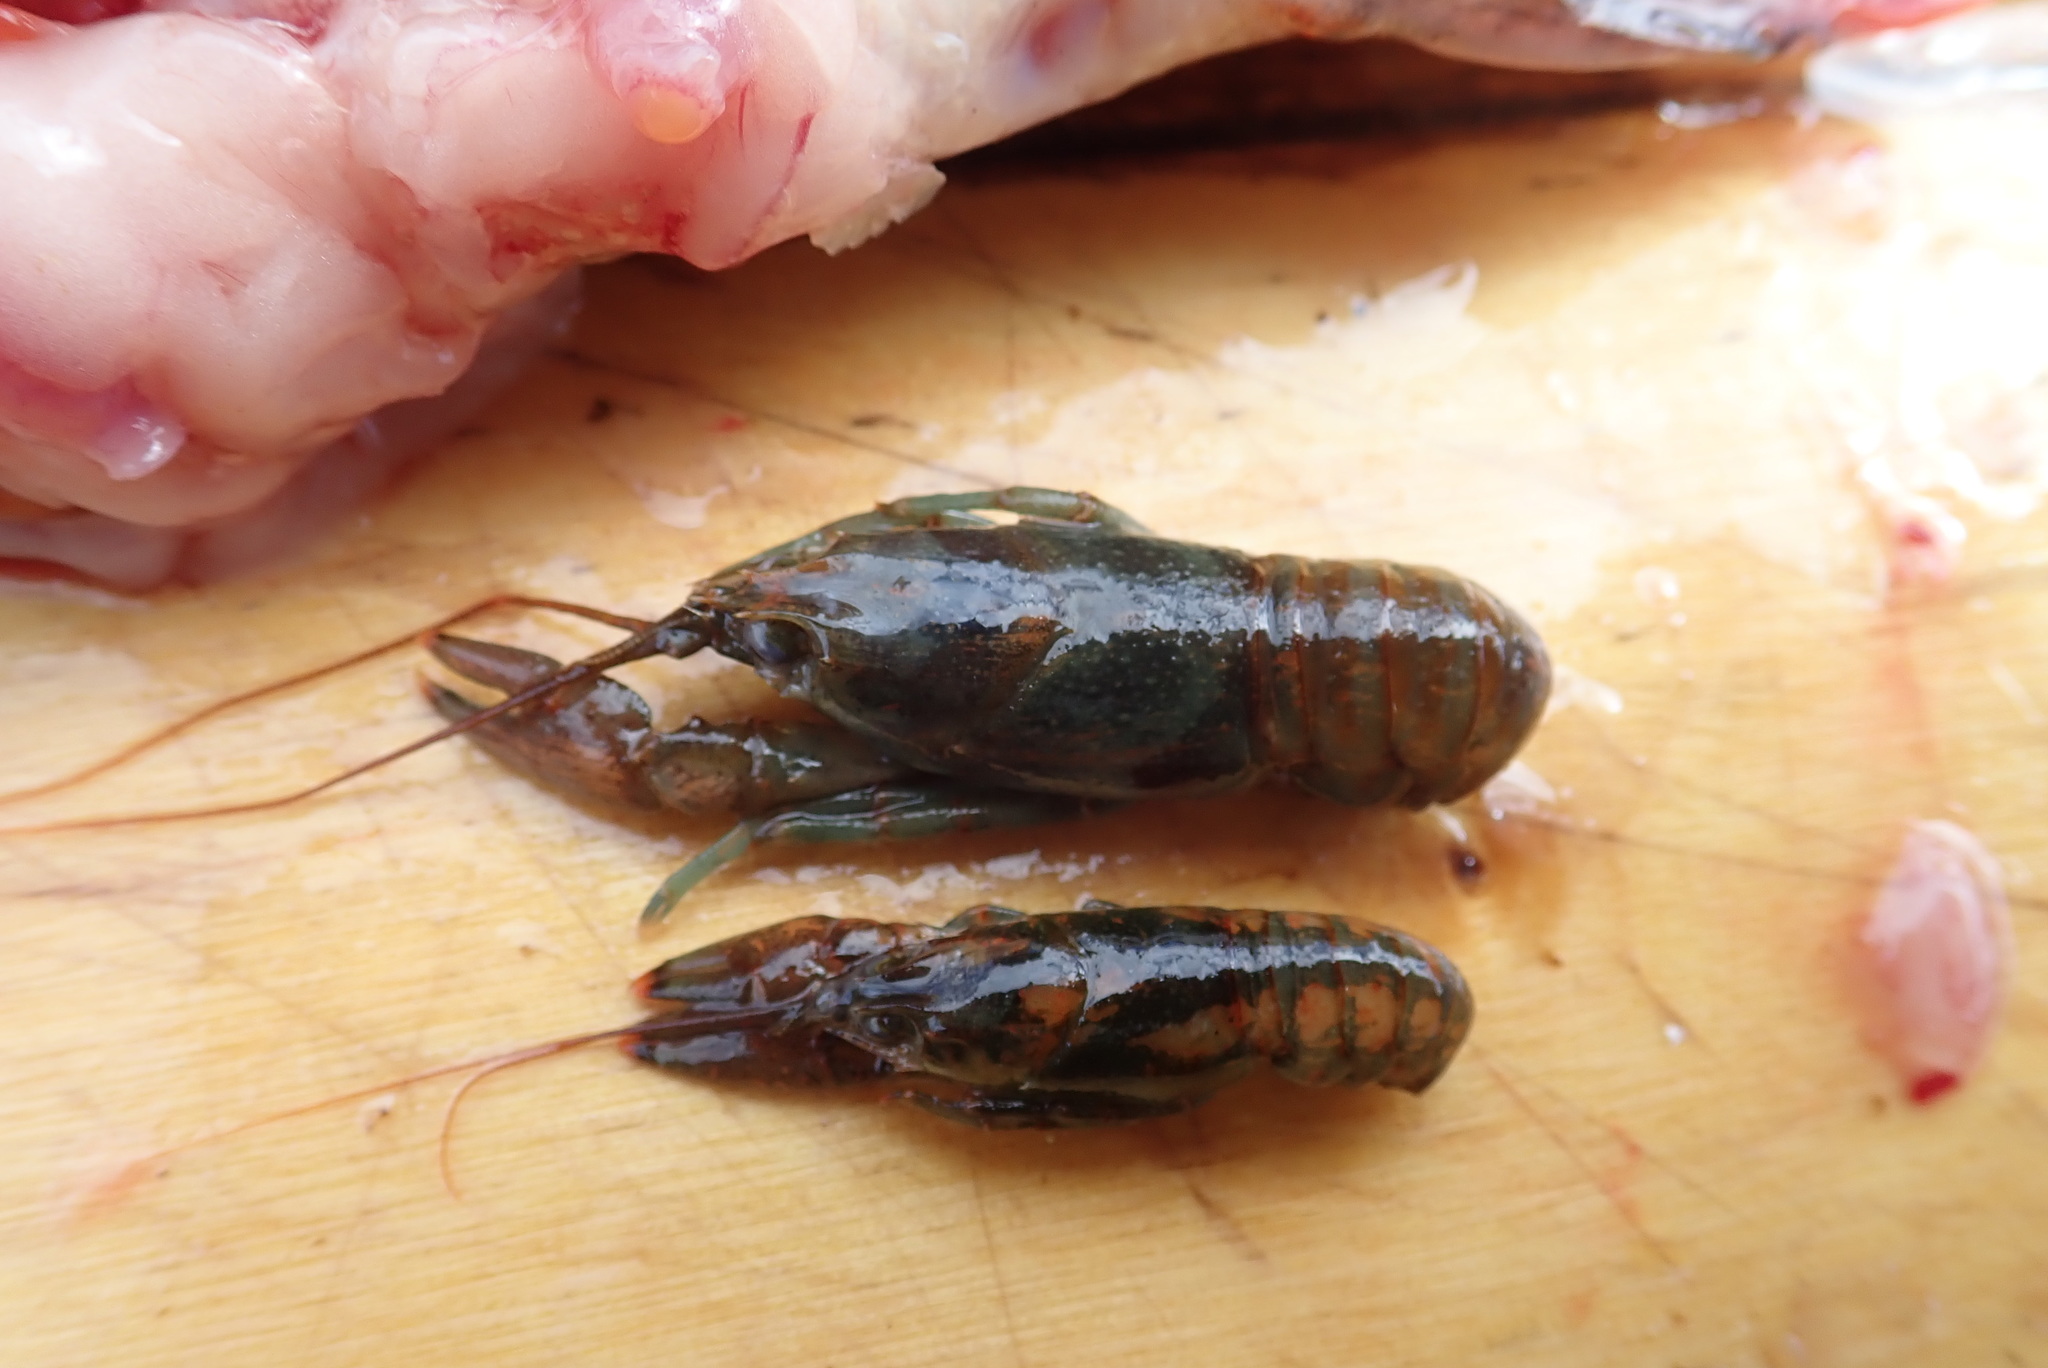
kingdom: Animalia
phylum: Arthropoda
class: Malacostraca
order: Decapoda
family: Cambaridae
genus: Faxonius
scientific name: Faxonius rusticus
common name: Rusty crayfish
